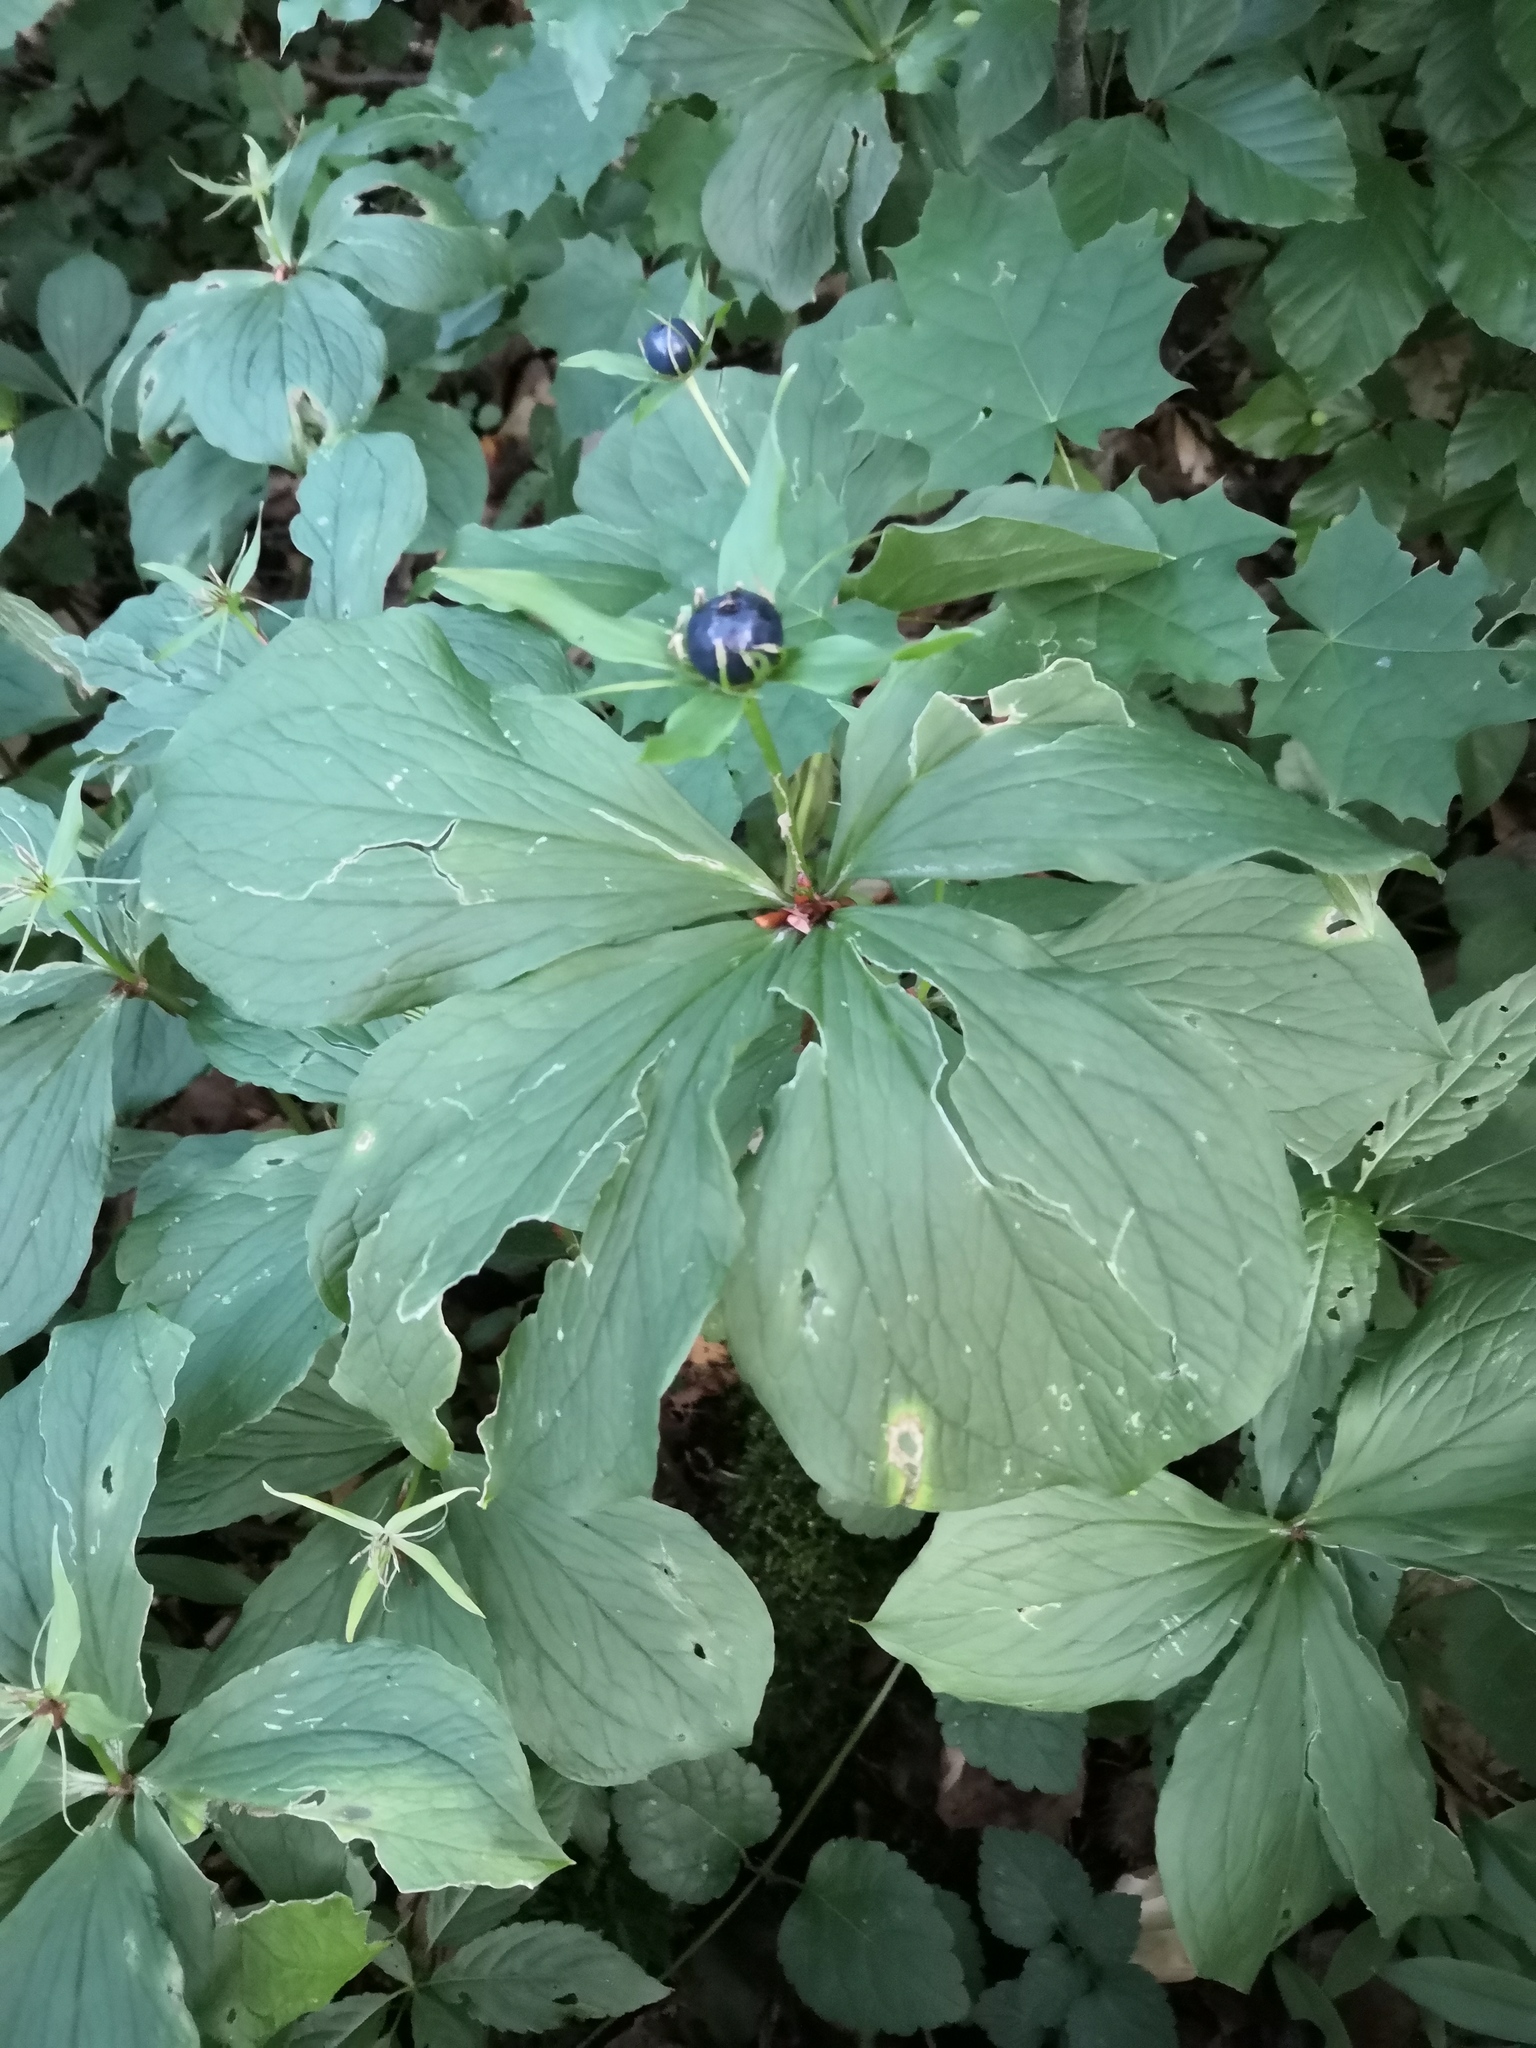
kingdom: Plantae
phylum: Tracheophyta
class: Liliopsida
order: Liliales
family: Melanthiaceae
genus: Paris
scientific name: Paris quadrifolia
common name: Herb-paris
